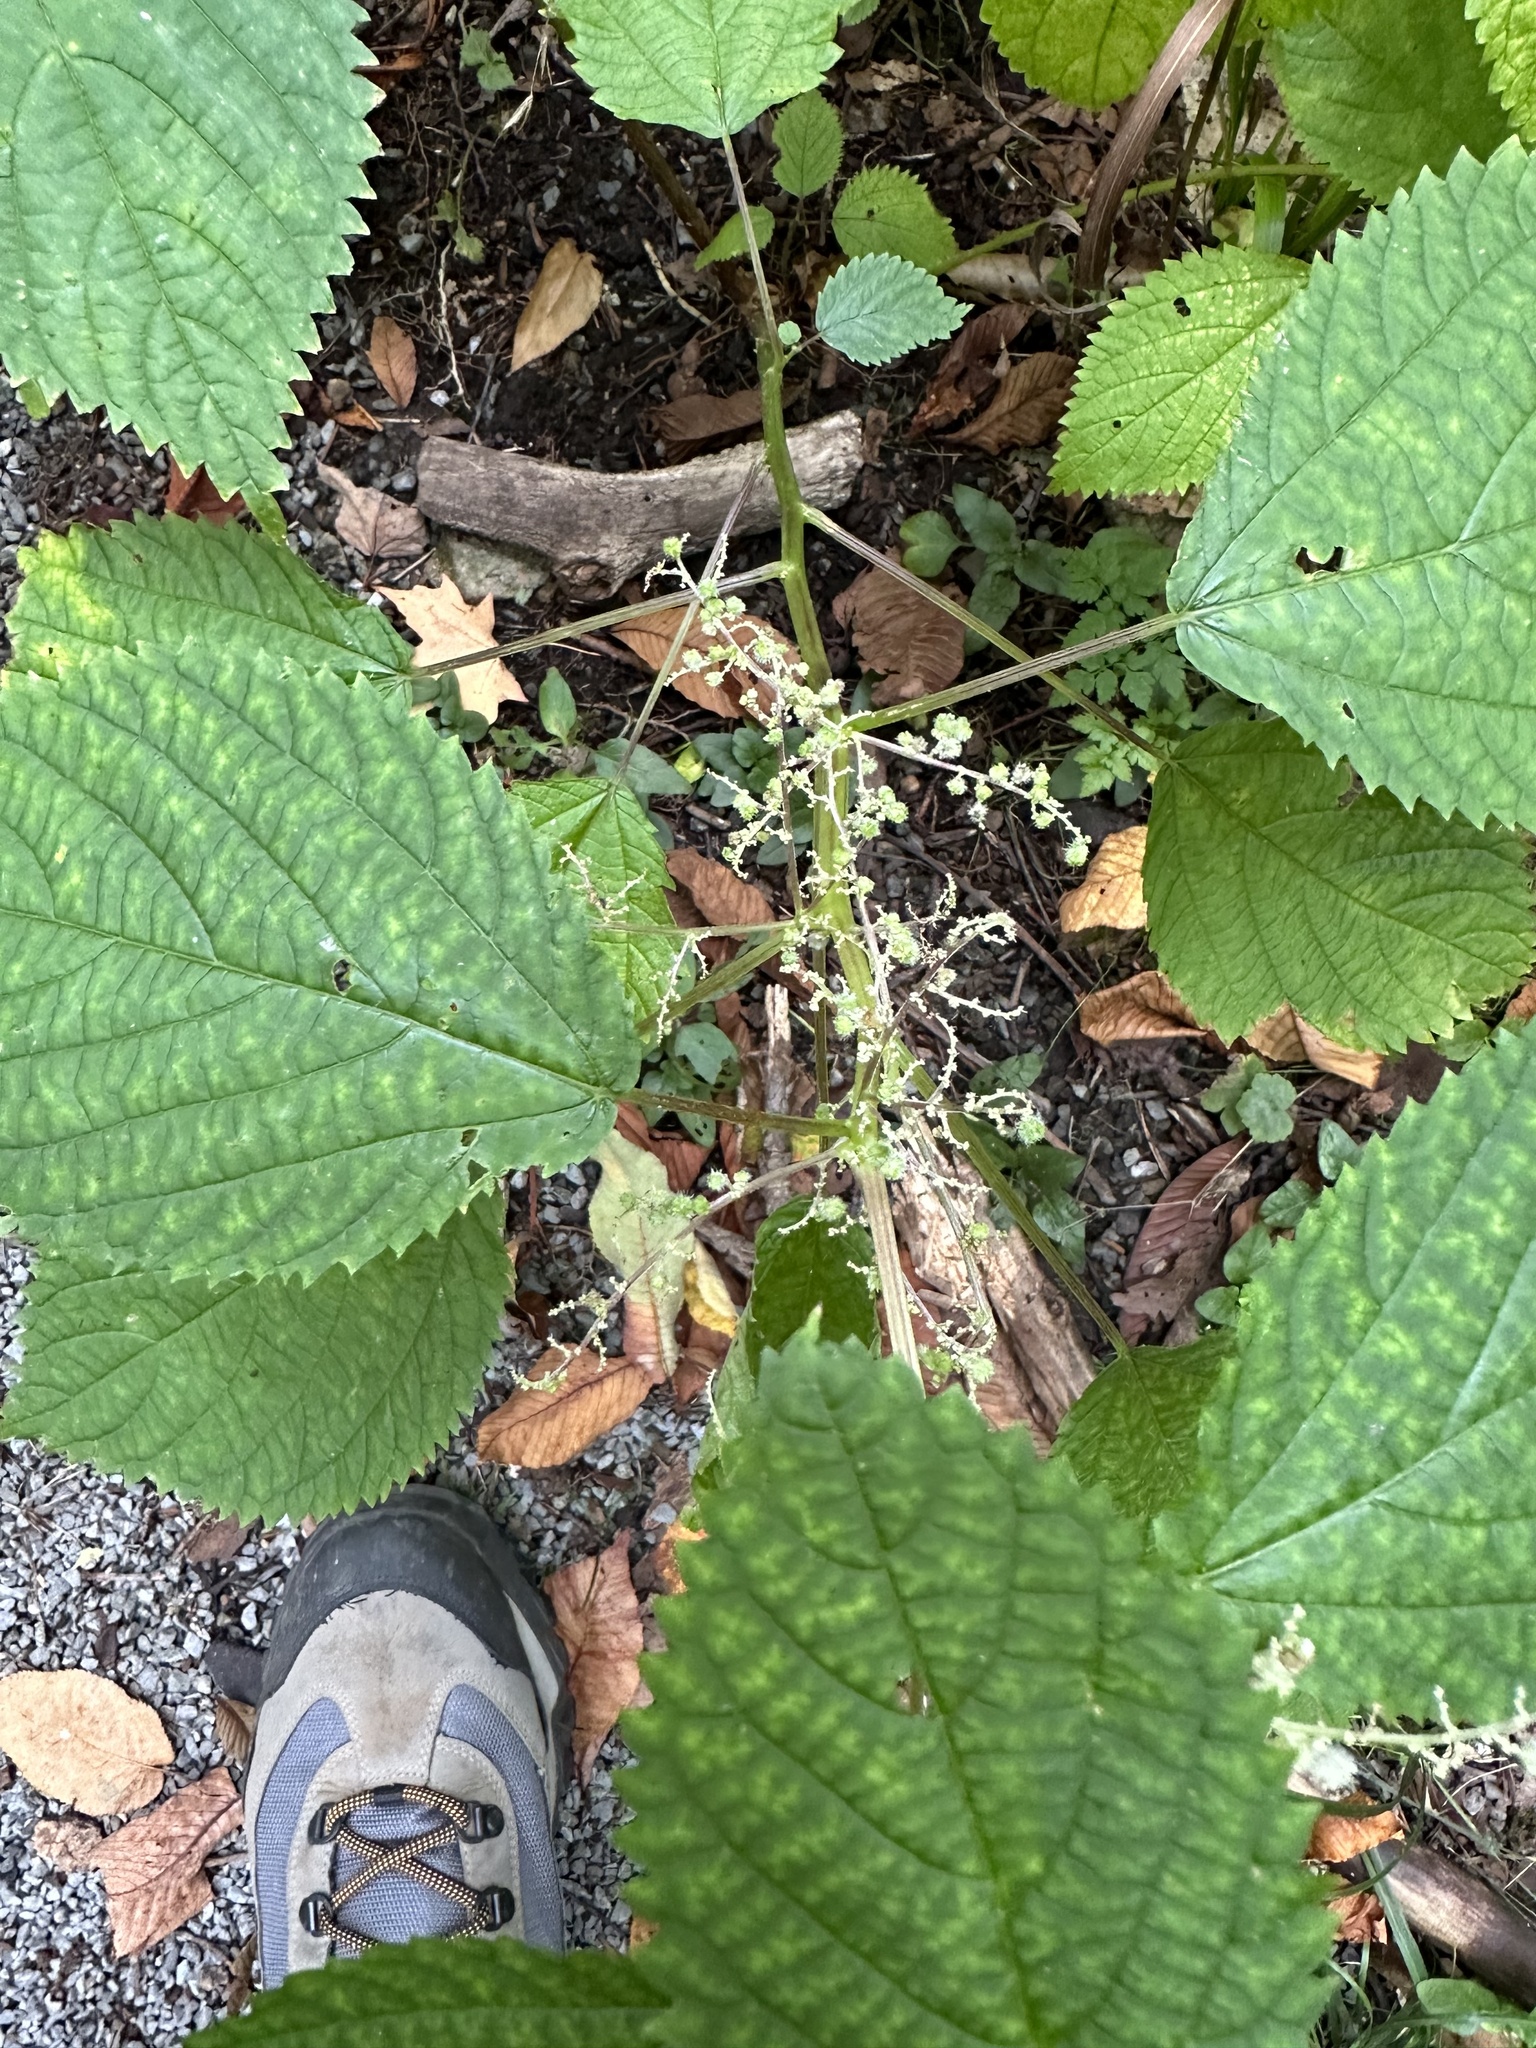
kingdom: Plantae
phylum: Tracheophyta
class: Magnoliopsida
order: Rosales
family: Urticaceae
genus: Laportea
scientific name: Laportea canadensis
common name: Canada nettle
